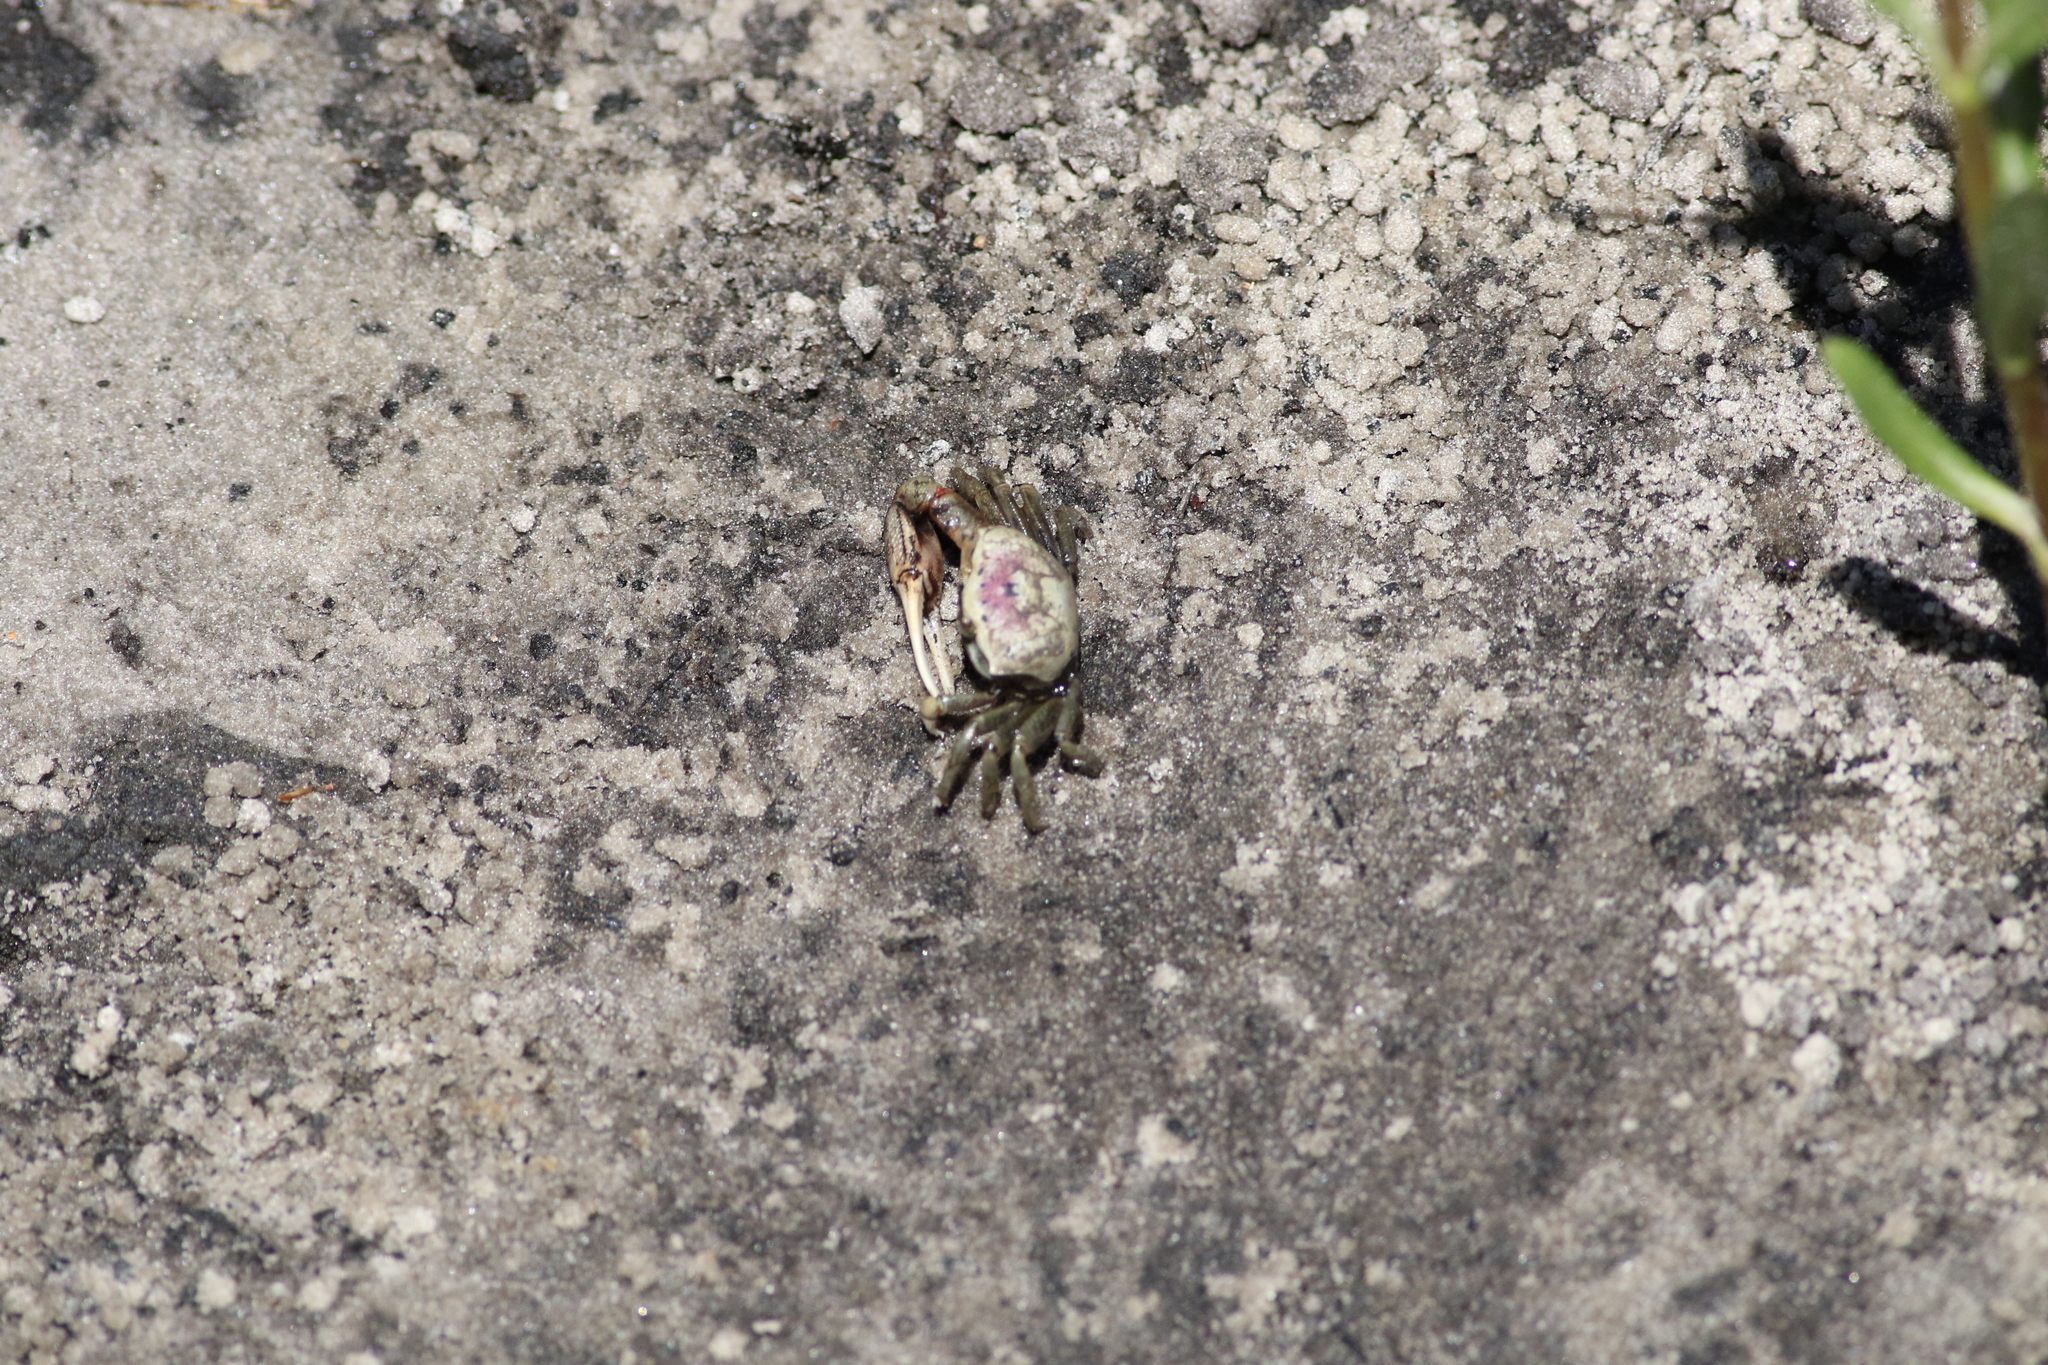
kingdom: Animalia
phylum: Arthropoda
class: Malacostraca
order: Decapoda
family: Ocypodidae
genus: Leptuca
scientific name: Leptuca pugilator
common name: Atlantic sand fiddler crab
